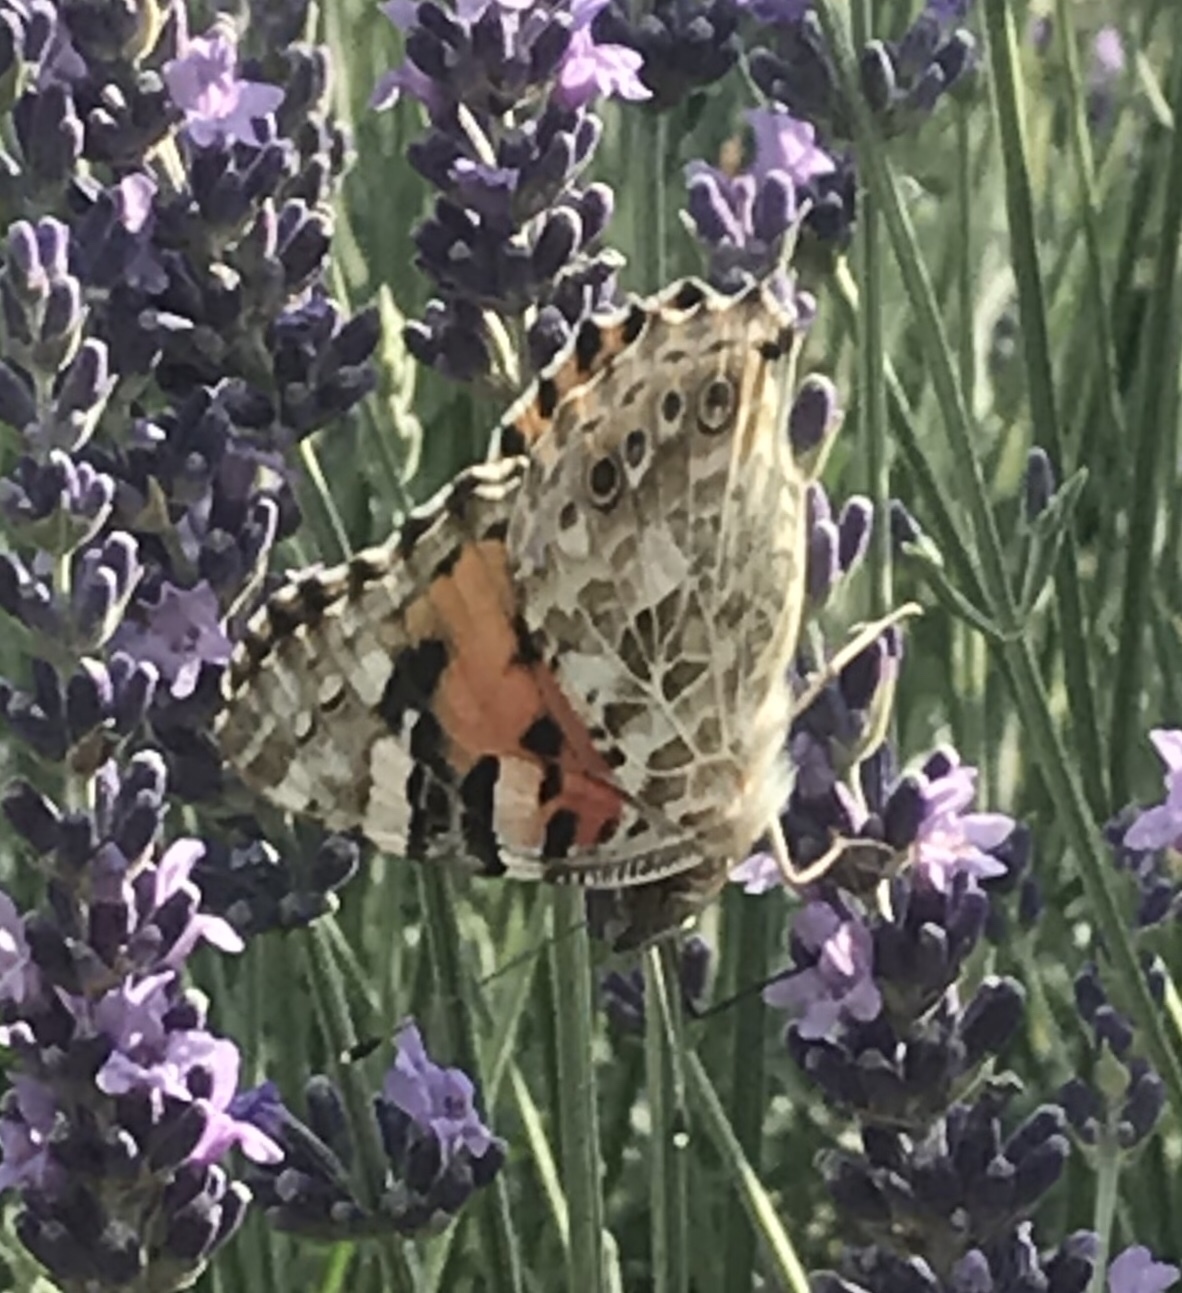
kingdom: Animalia
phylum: Arthropoda
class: Insecta
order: Lepidoptera
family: Nymphalidae
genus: Vanessa
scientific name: Vanessa cardui
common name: Painted lady
